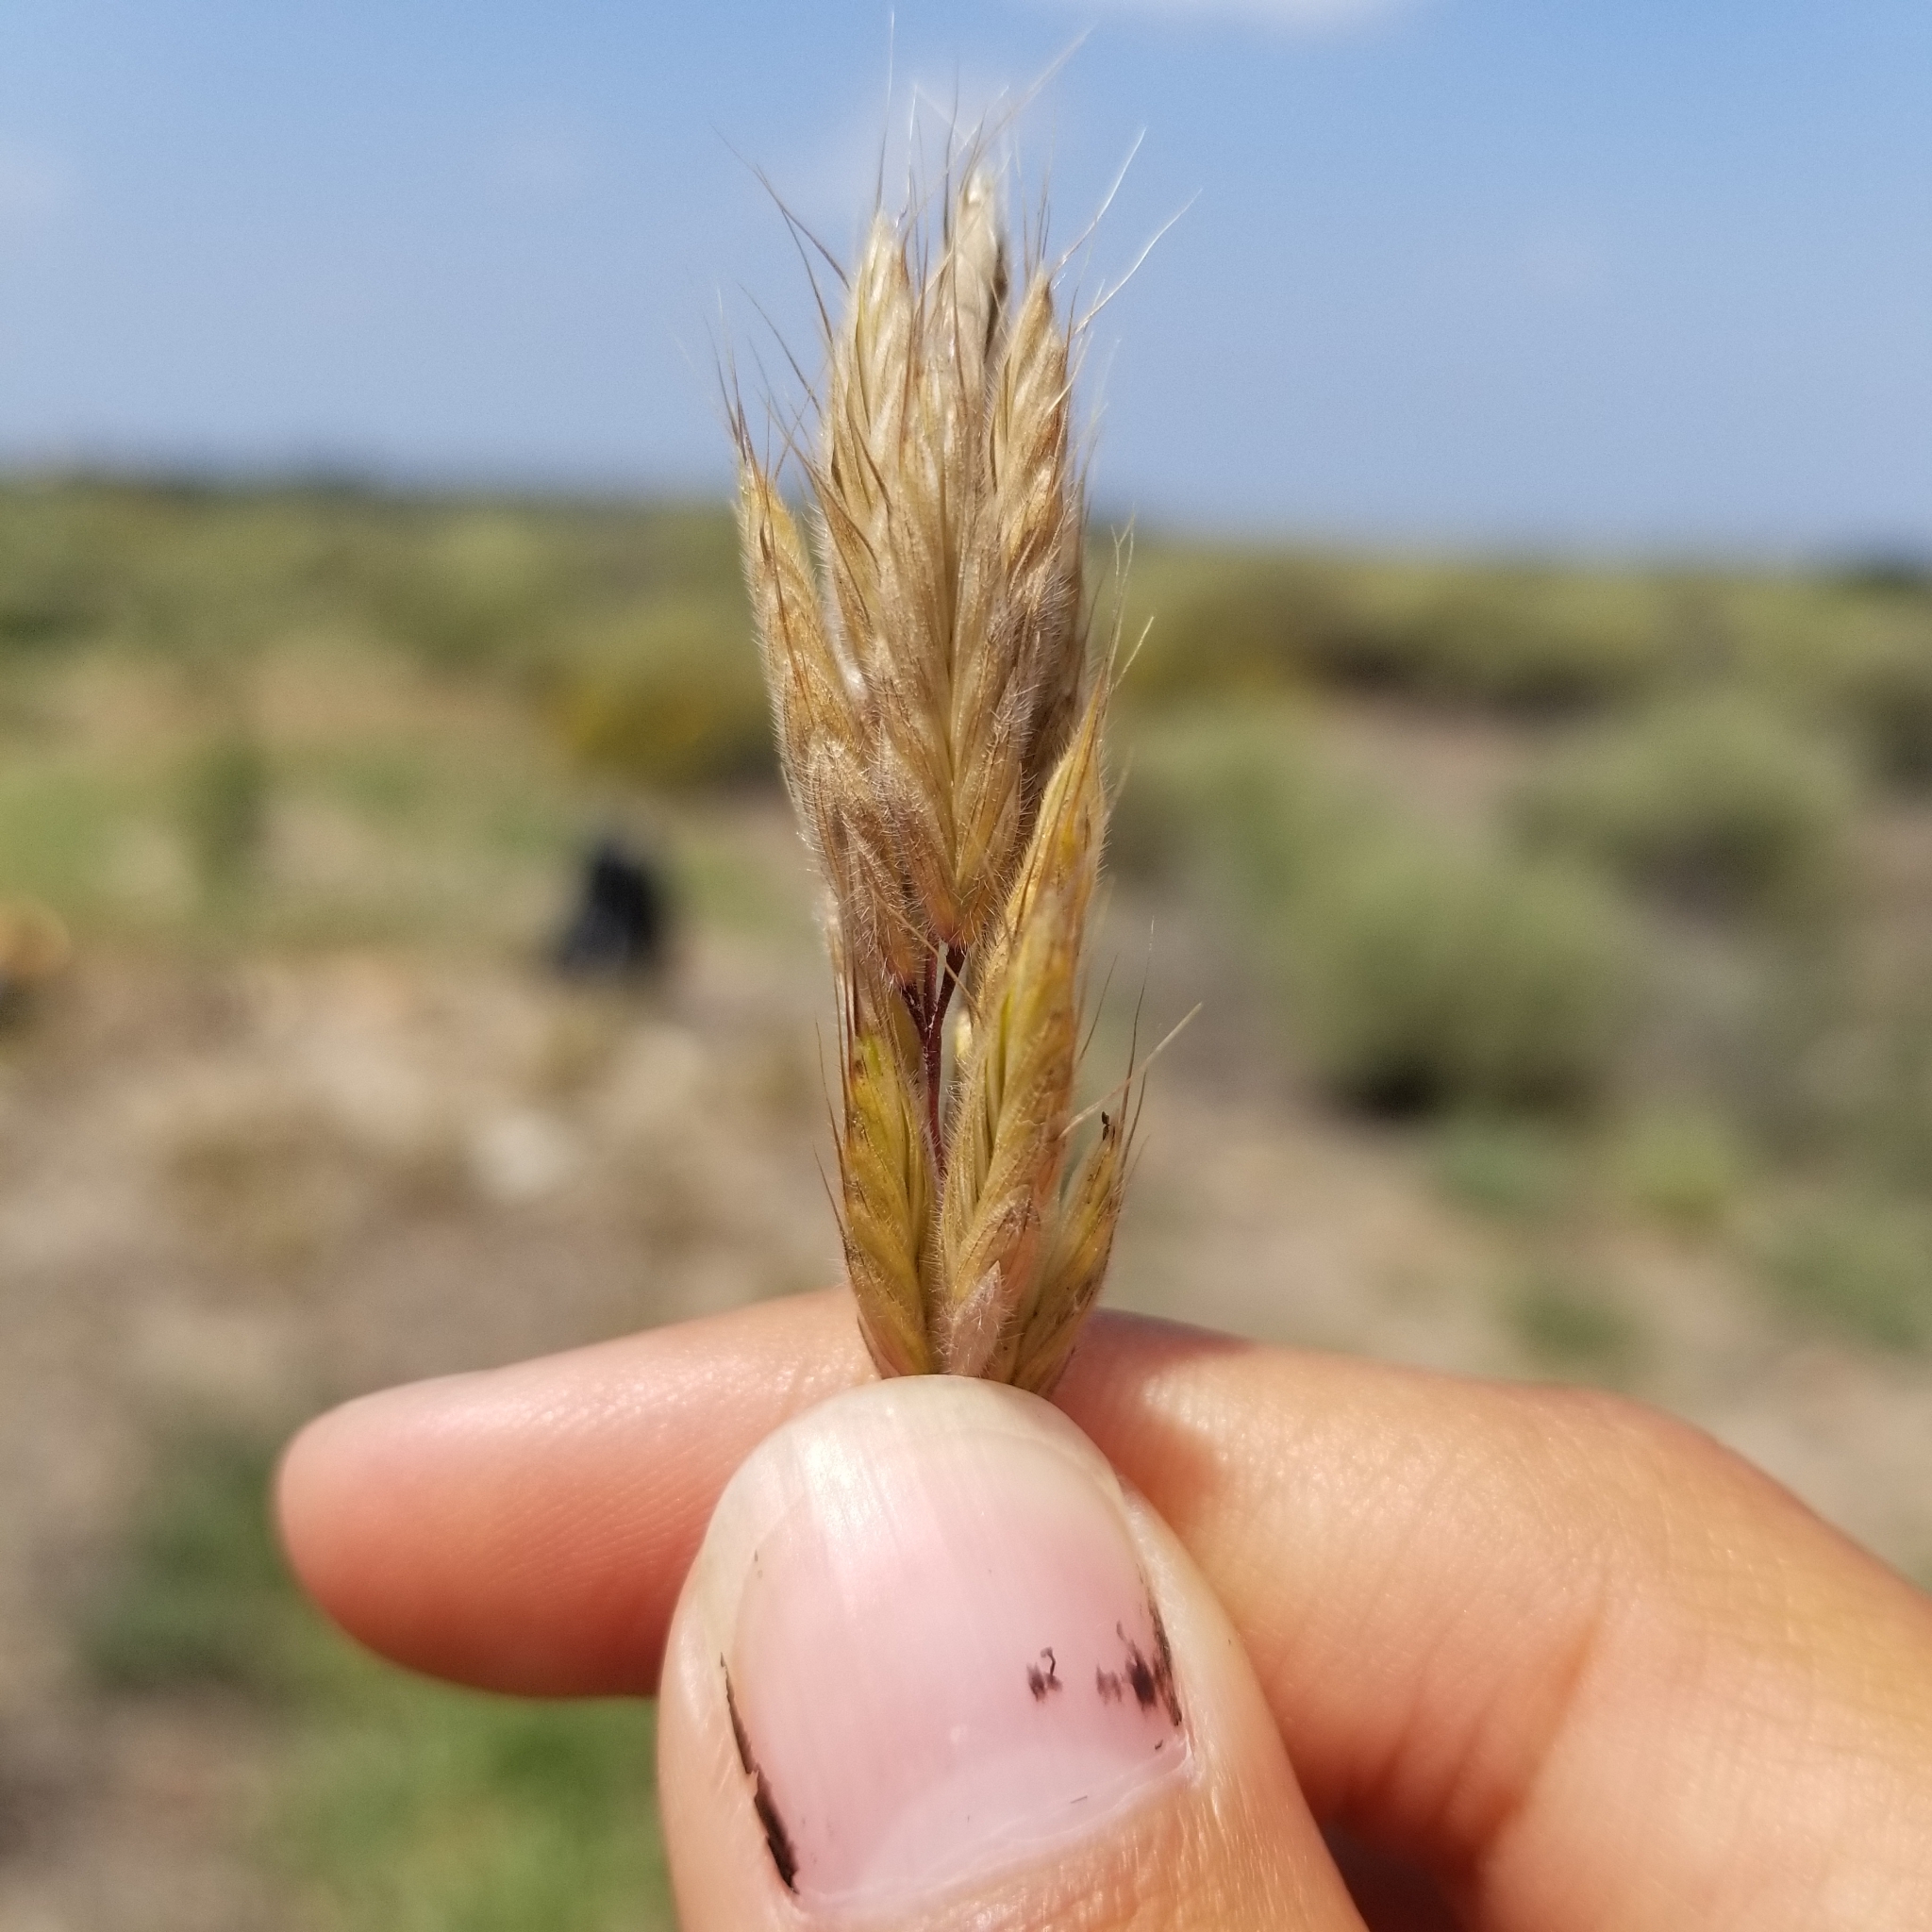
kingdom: Plantae
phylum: Tracheophyta
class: Liliopsida
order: Poales
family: Poaceae
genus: Bromus
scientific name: Bromus hordeaceus
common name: Soft brome
